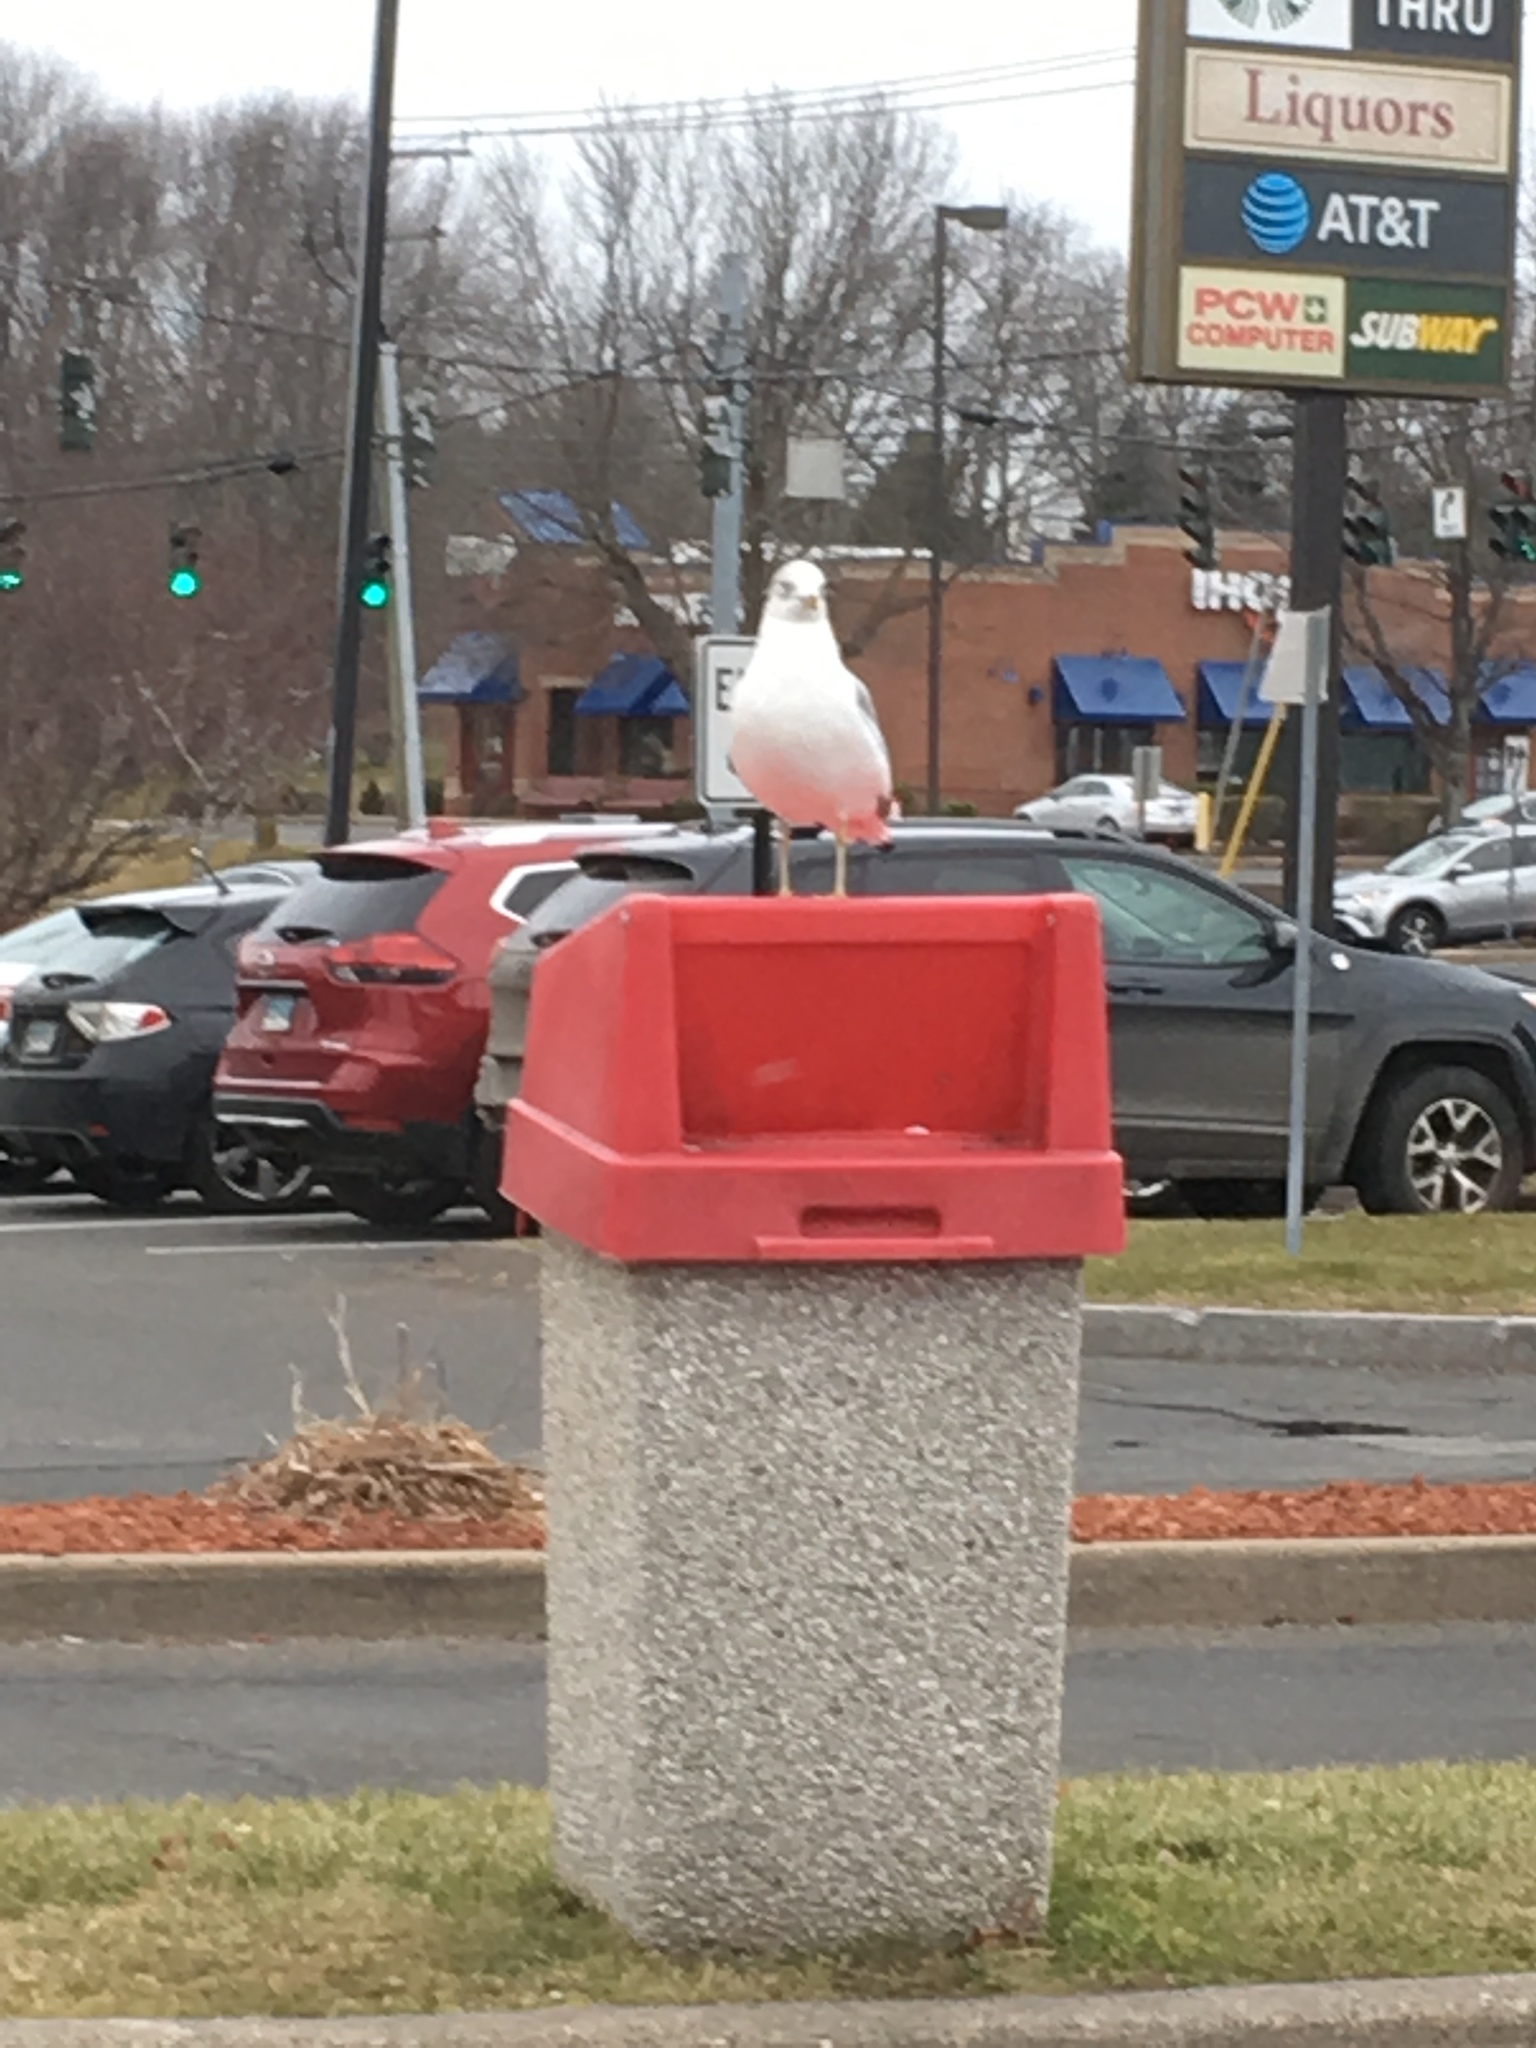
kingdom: Animalia
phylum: Chordata
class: Aves
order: Charadriiformes
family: Laridae
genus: Larus
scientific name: Larus delawarensis
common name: Ring-billed gull
